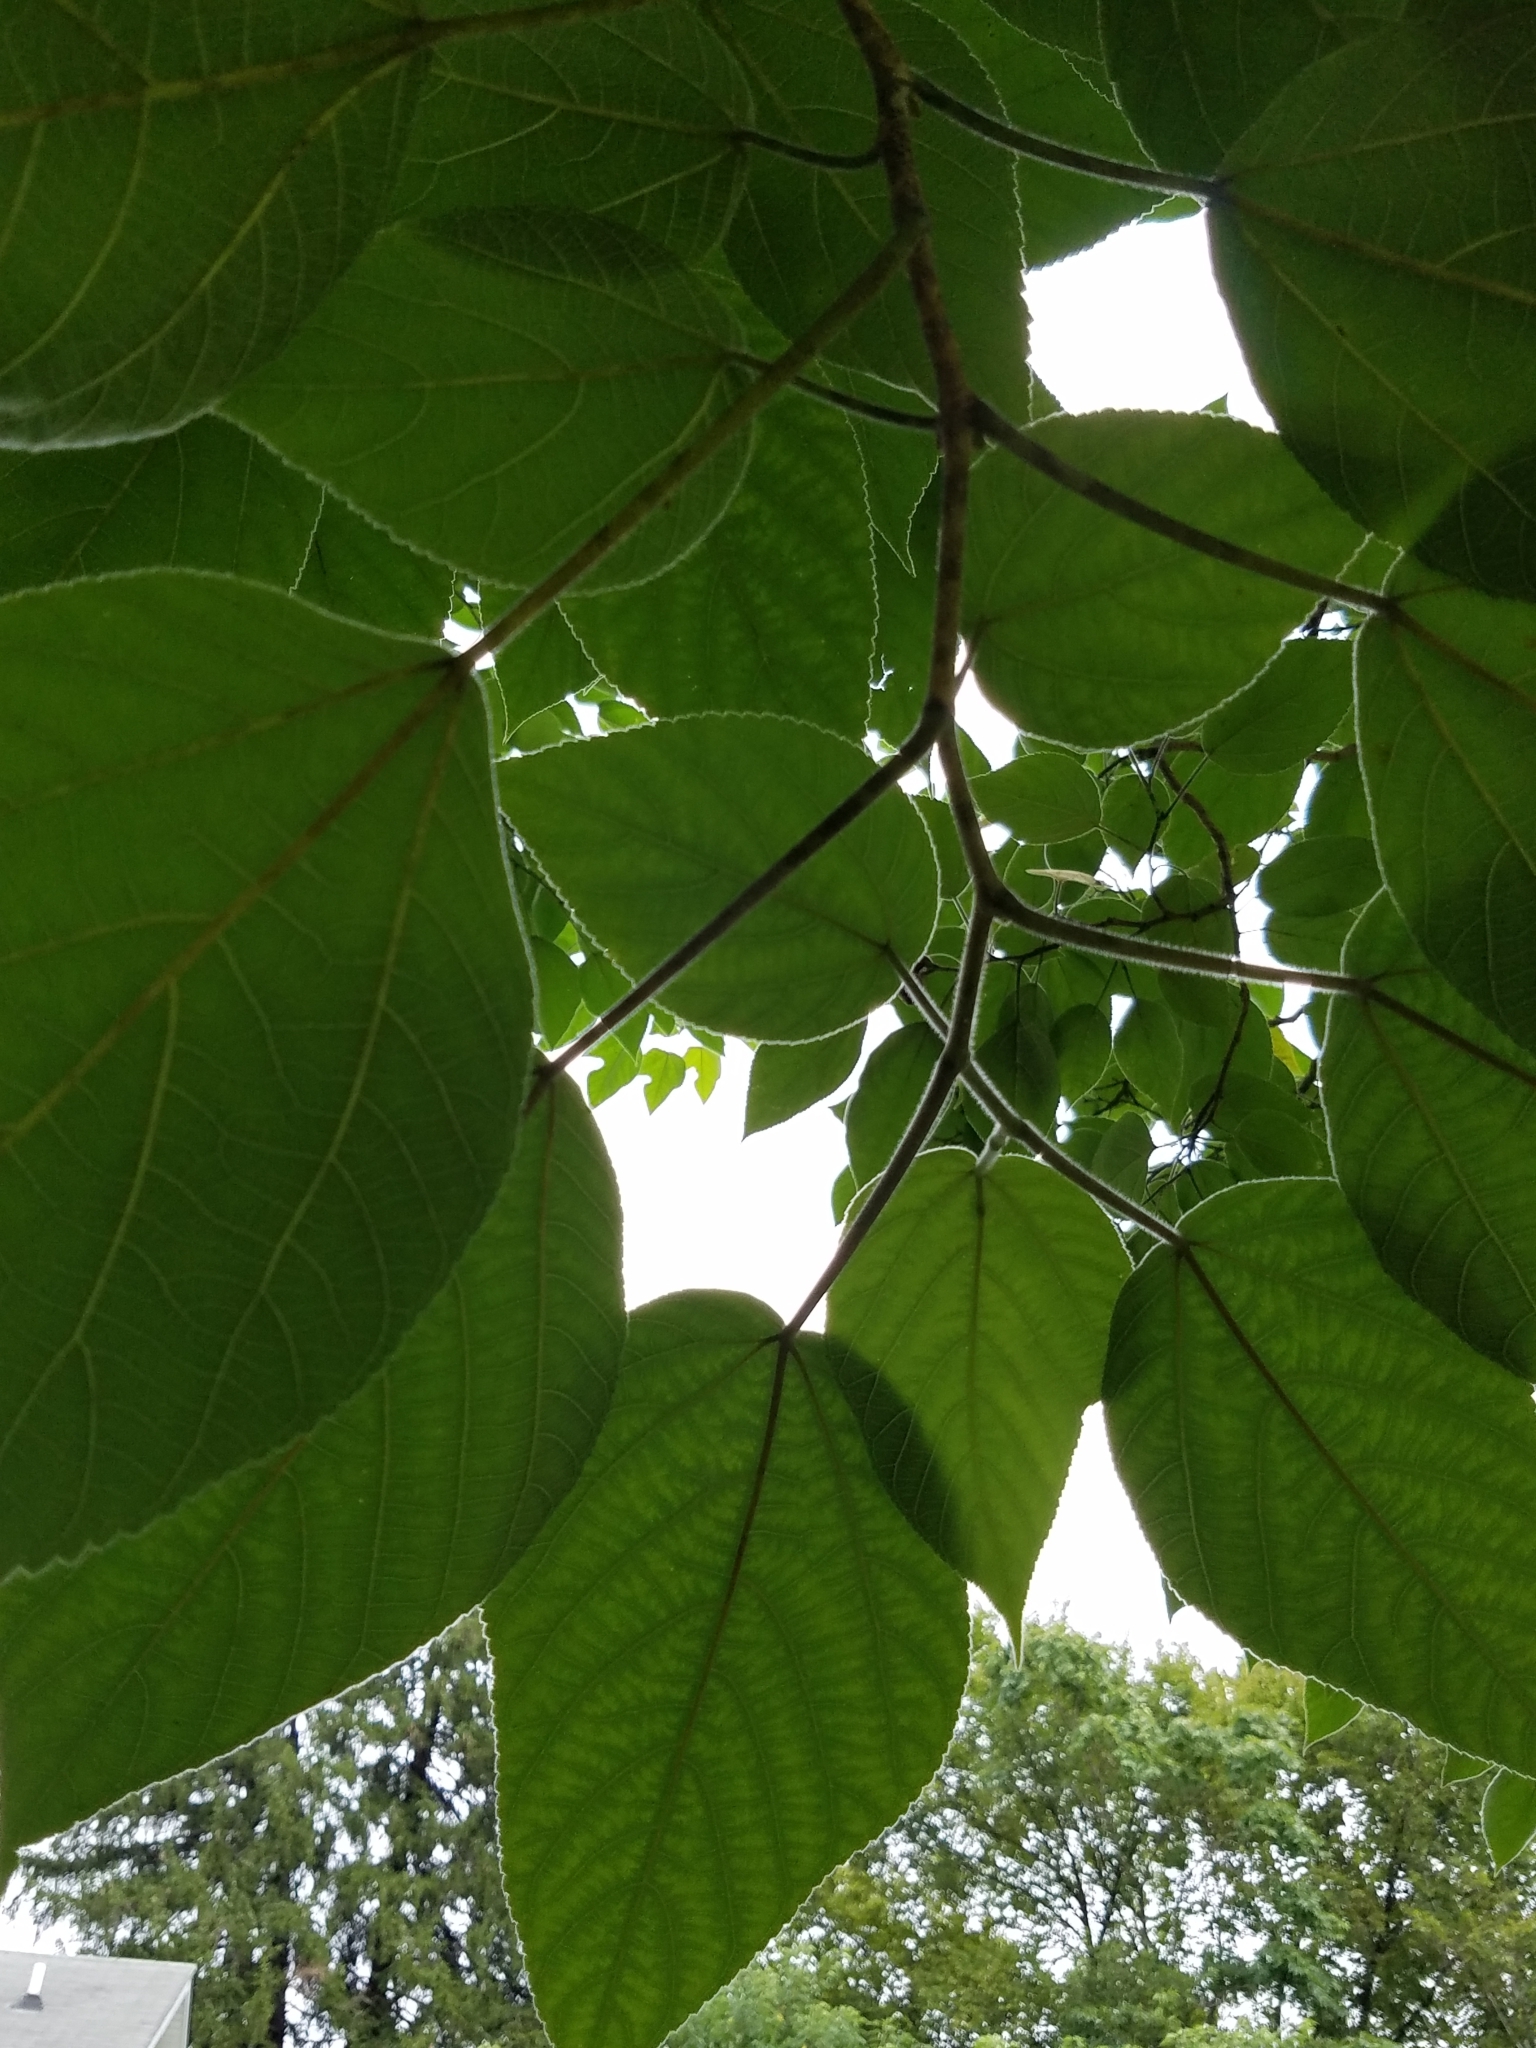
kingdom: Plantae
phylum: Tracheophyta
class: Magnoliopsida
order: Rosales
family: Moraceae
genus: Broussonetia
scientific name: Broussonetia papyrifera
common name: Paper mulberry
